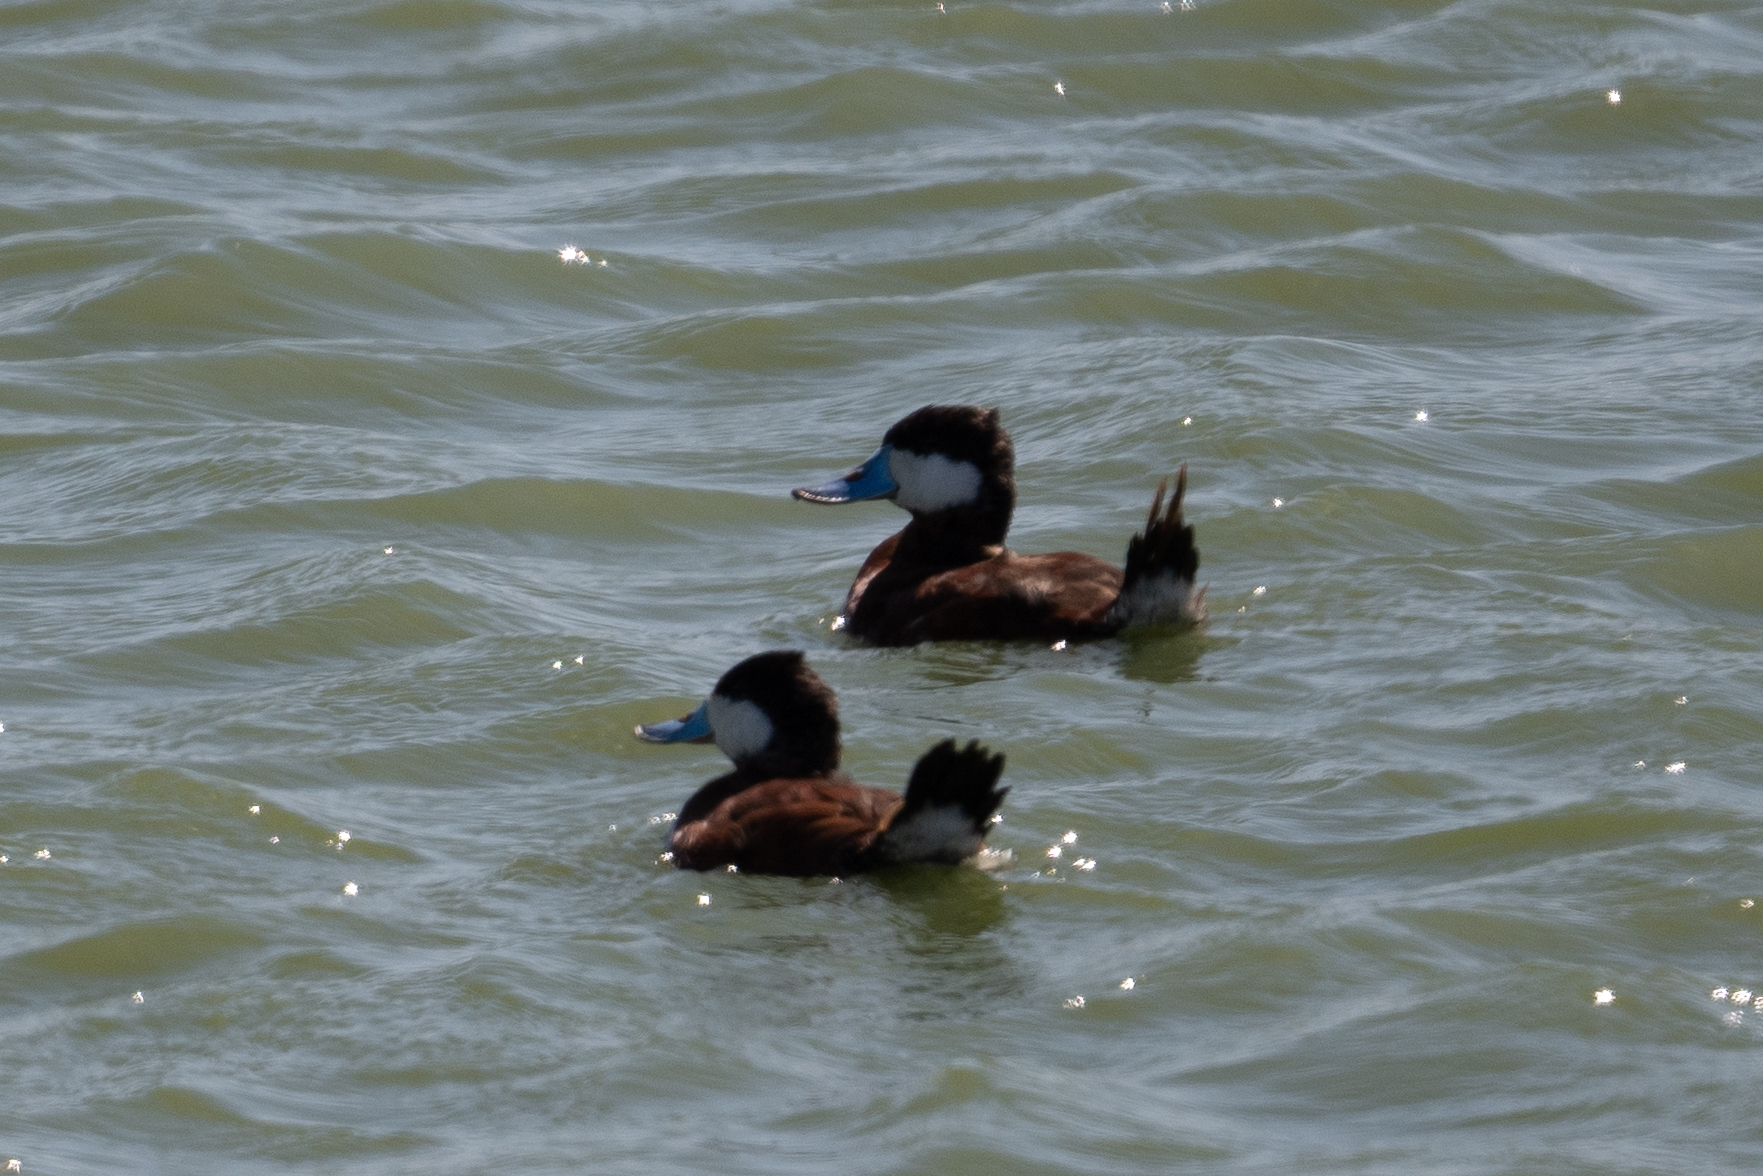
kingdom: Animalia
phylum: Chordata
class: Aves
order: Anseriformes
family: Anatidae
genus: Oxyura
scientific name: Oxyura jamaicensis
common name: Ruddy duck
